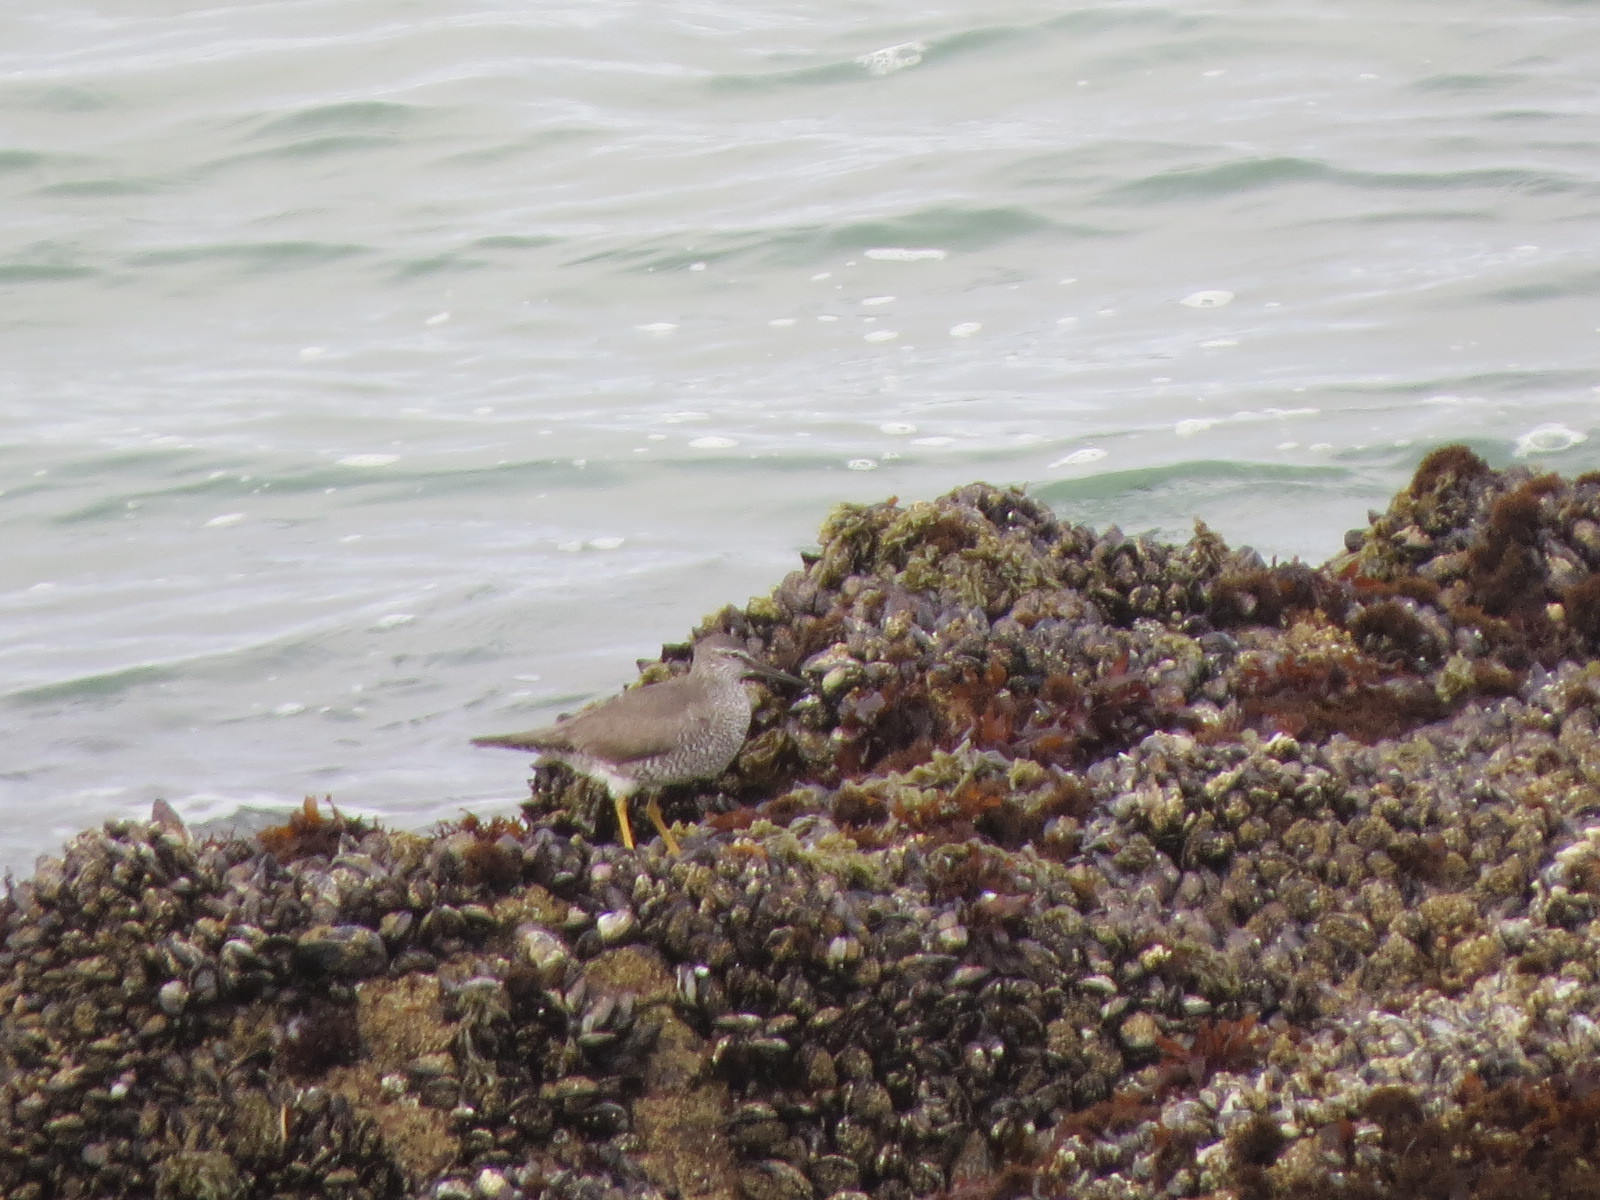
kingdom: Animalia
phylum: Chordata
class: Aves
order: Charadriiformes
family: Scolopacidae
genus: Tringa
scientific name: Tringa incana
